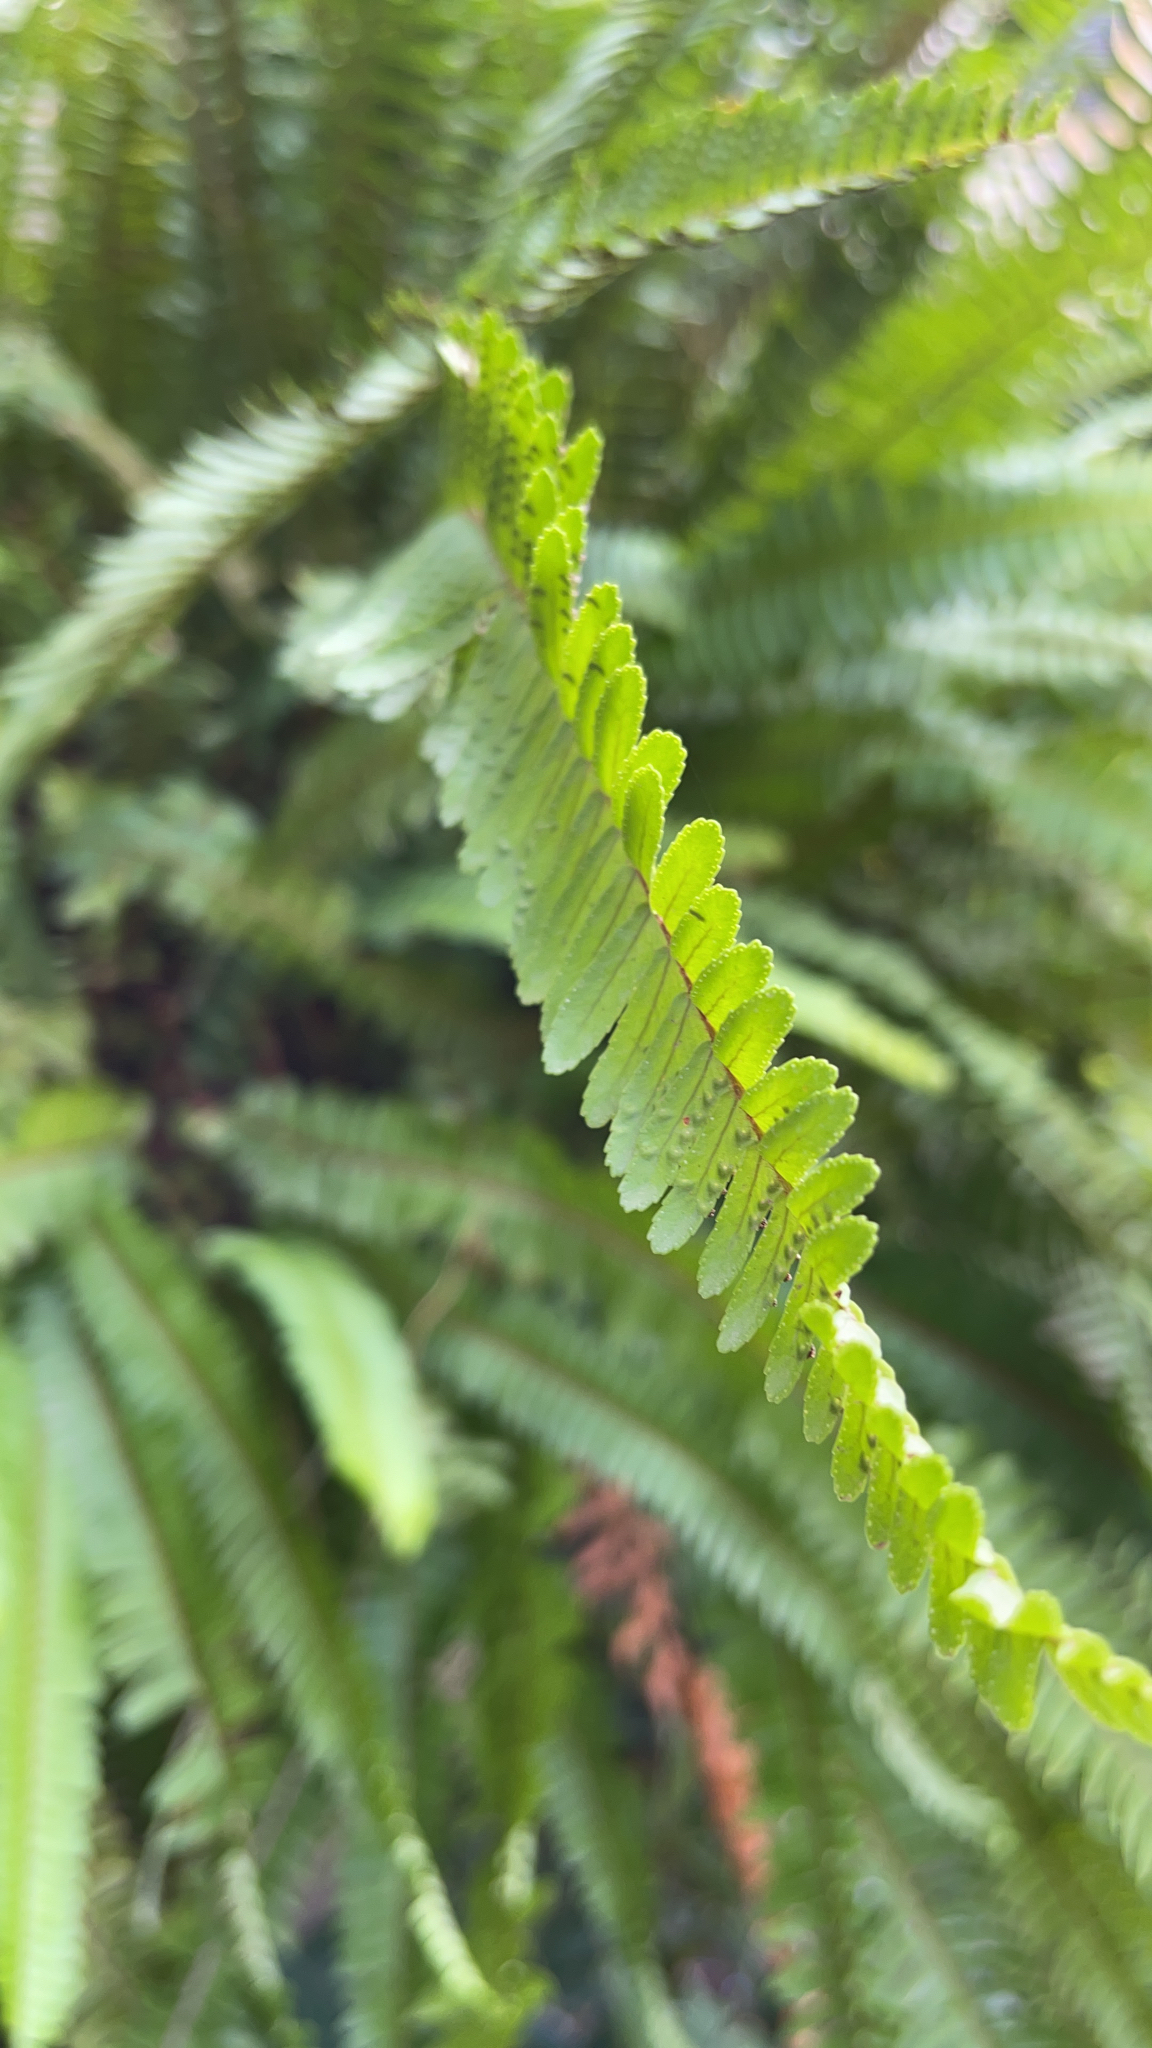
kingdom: Plantae
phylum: Tracheophyta
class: Polypodiopsida
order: Polypodiales
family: Nephrolepidaceae
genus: Nephrolepis
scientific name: Nephrolepis cordifolia
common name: Narrow swordfern
